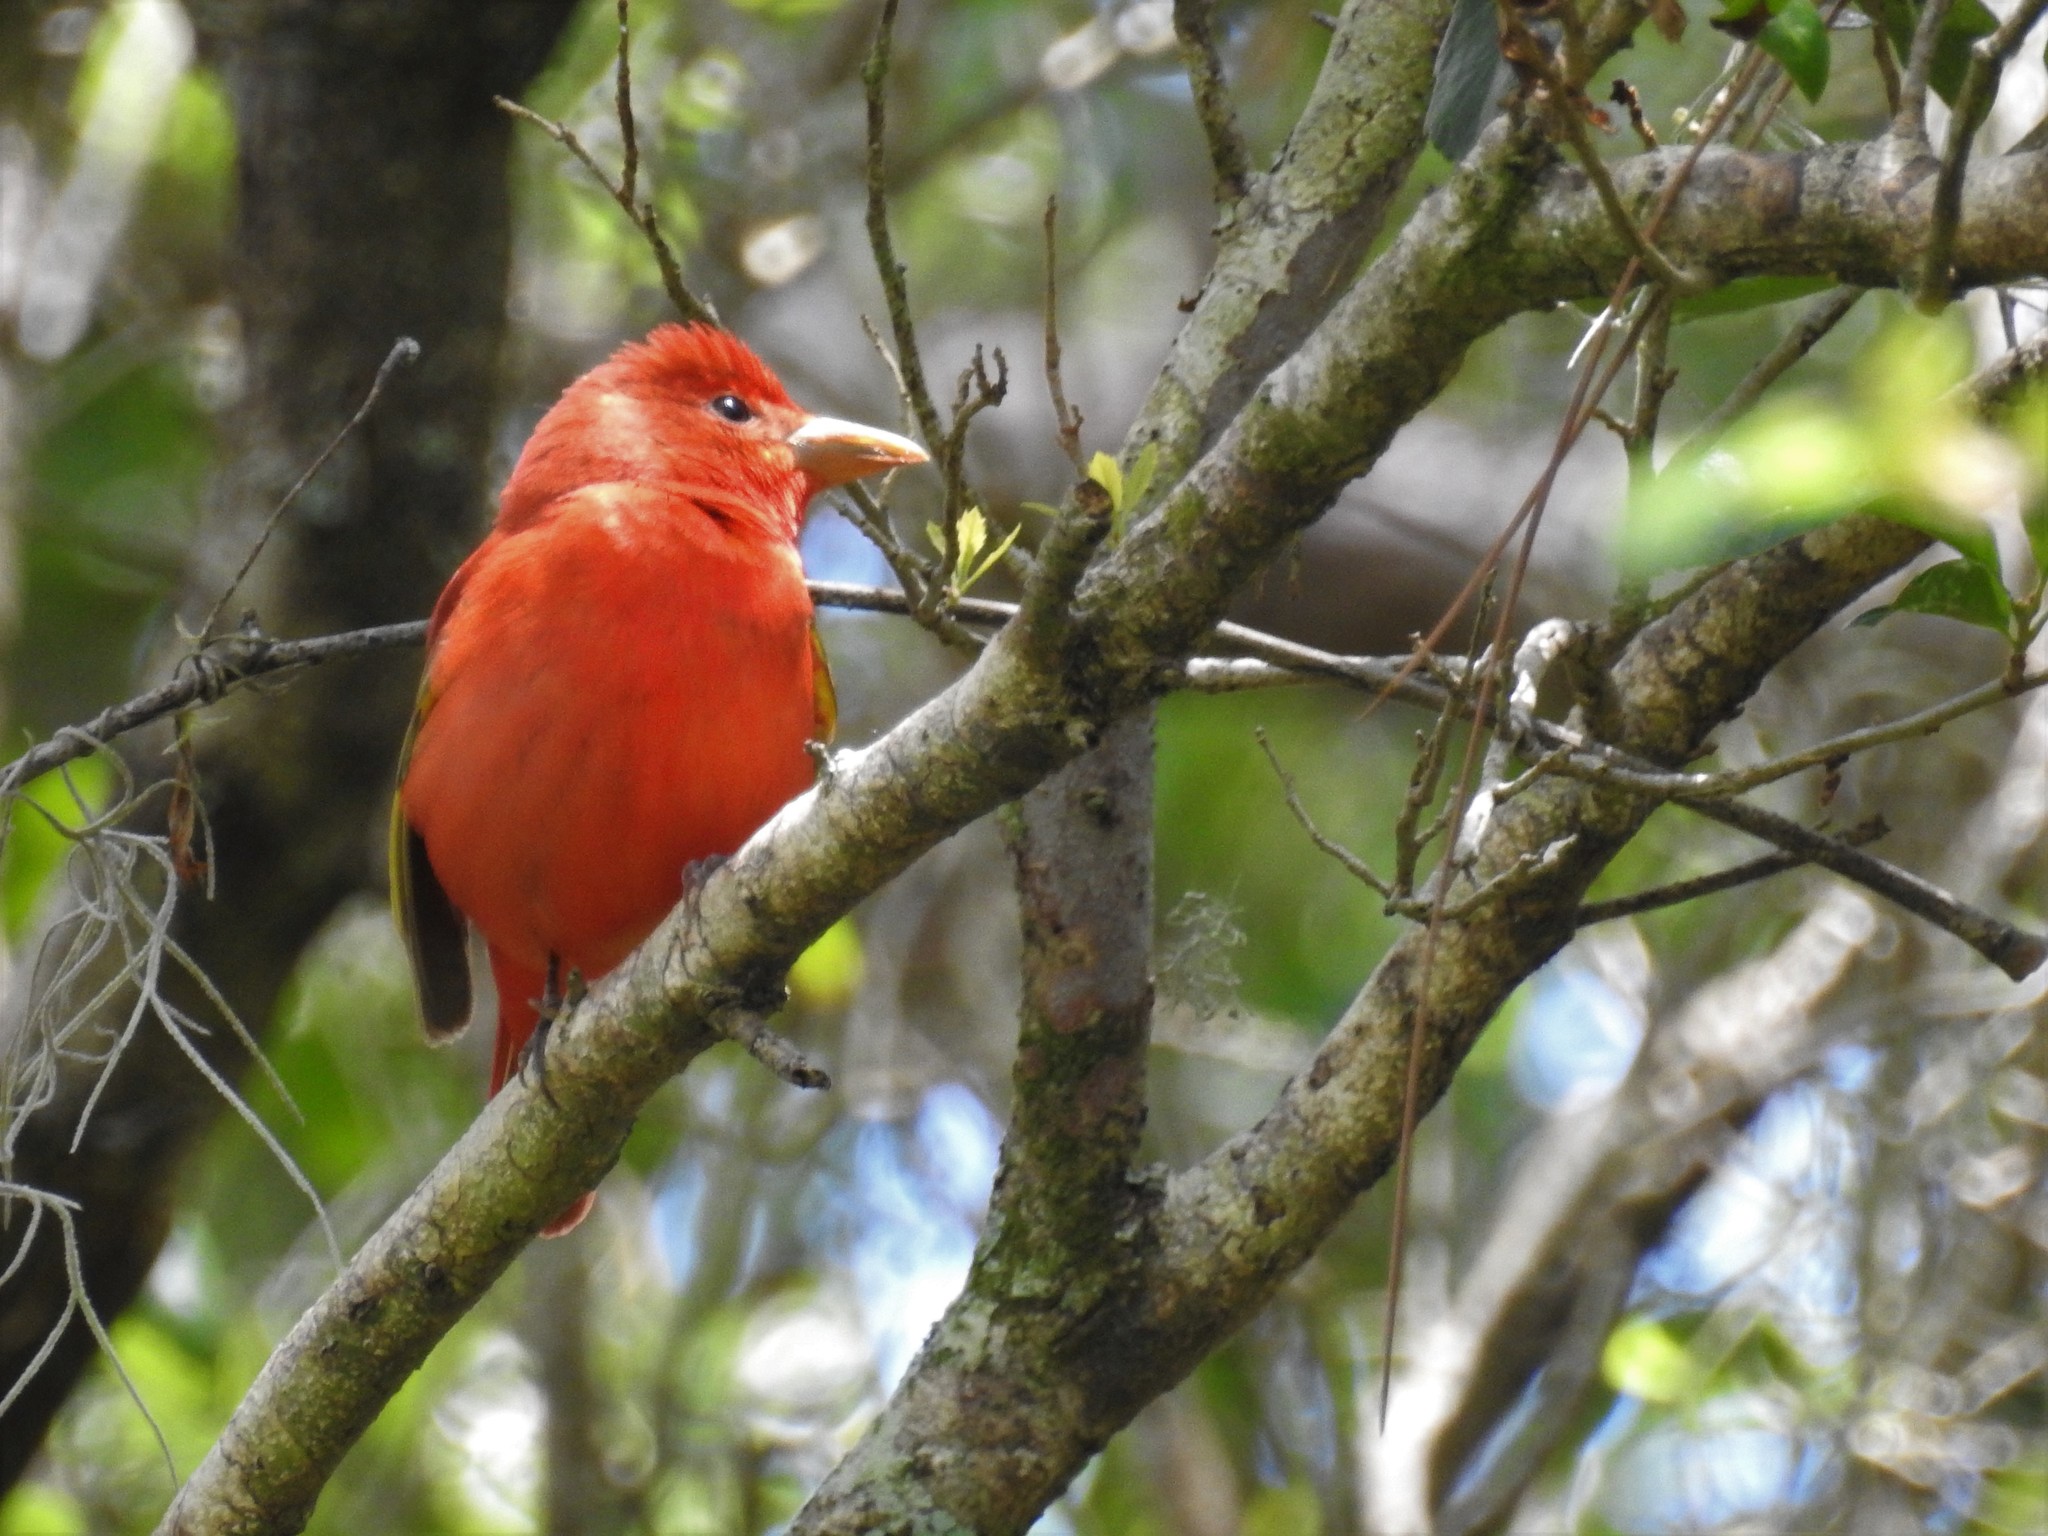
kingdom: Animalia
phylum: Chordata
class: Aves
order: Passeriformes
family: Cardinalidae
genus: Piranga
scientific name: Piranga rubra
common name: Summer tanager
